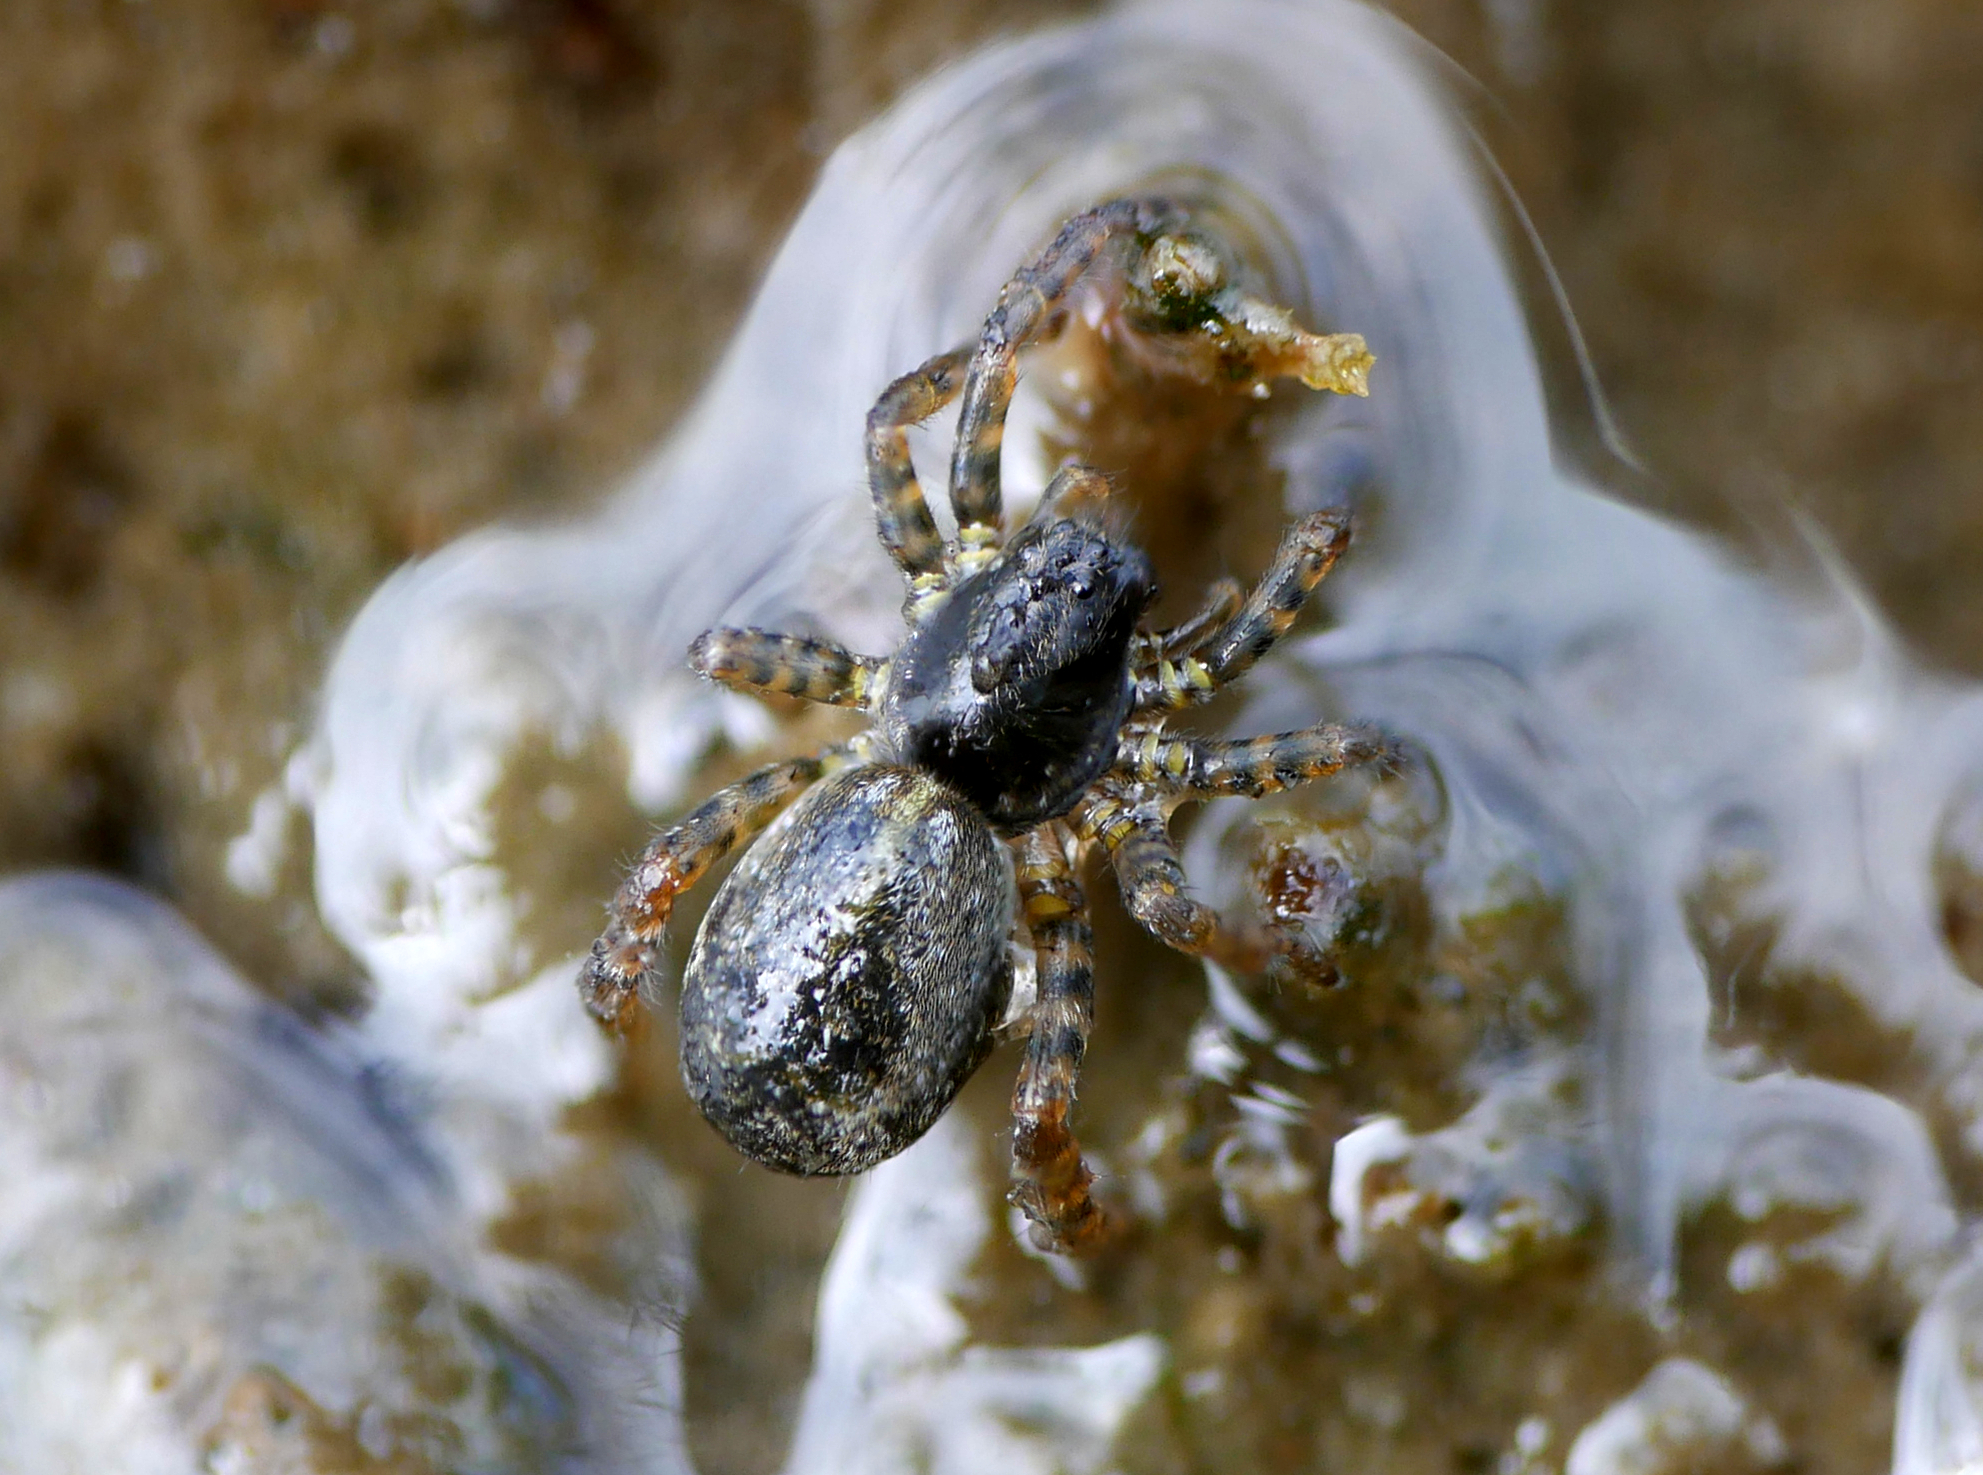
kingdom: Animalia
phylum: Arthropoda
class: Arachnida
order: Araneae
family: Lycosidae
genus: Arctosa
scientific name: Arctosa leopardus
